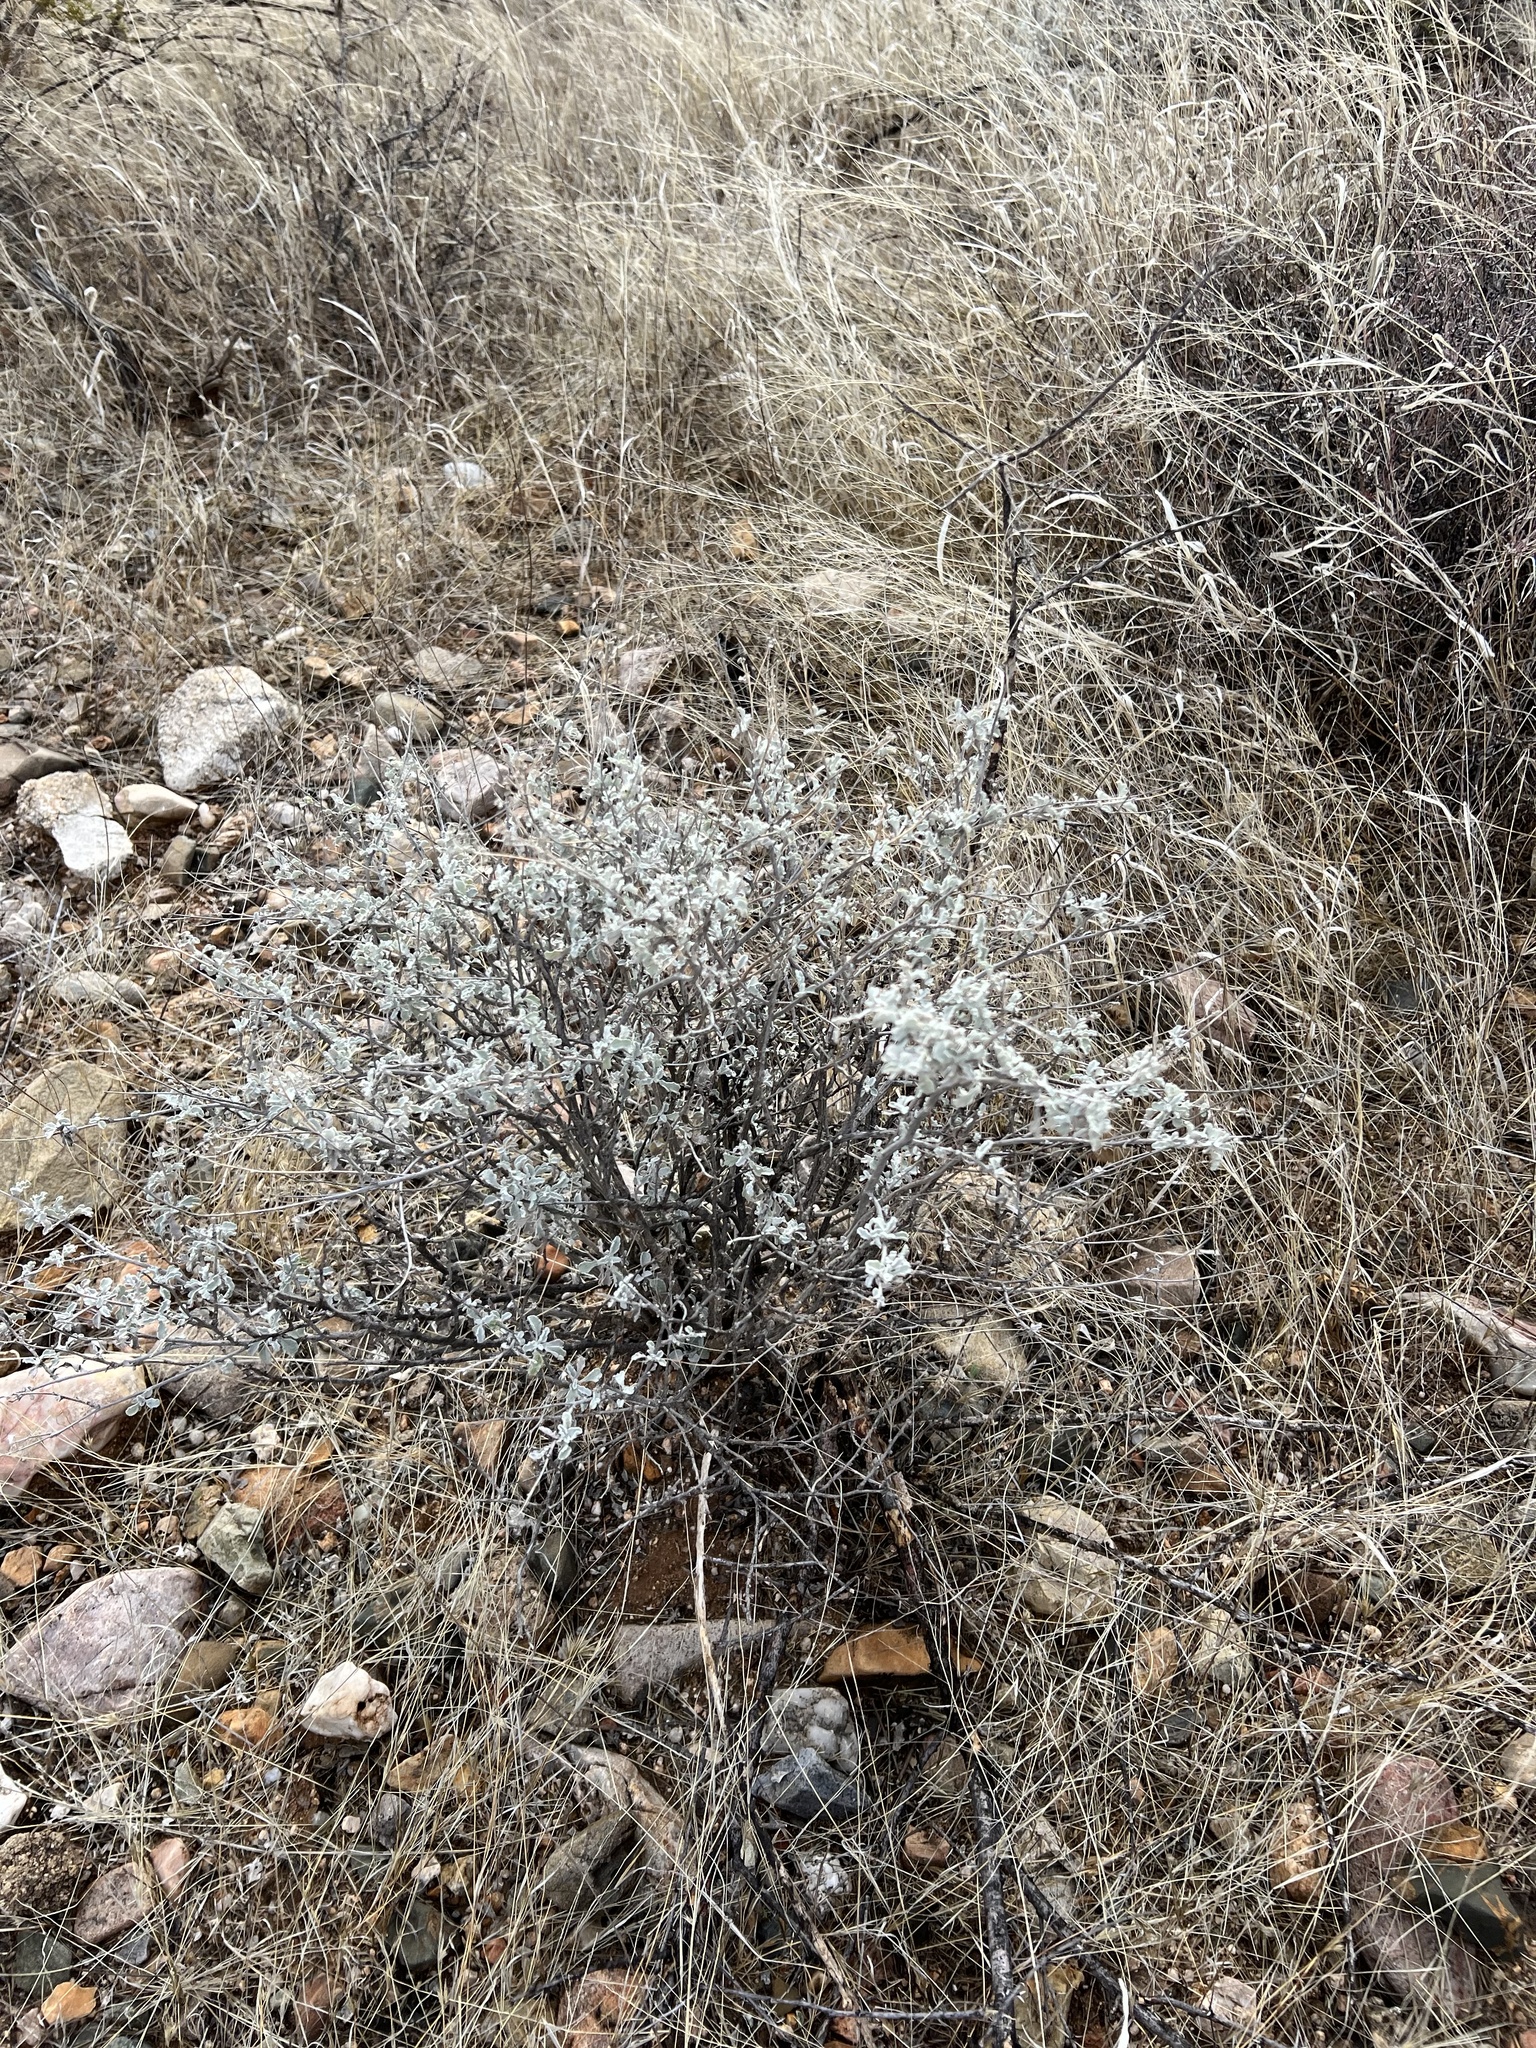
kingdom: Plantae
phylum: Tracheophyta
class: Magnoliopsida
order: Asterales
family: Asteraceae
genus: Parthenium
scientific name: Parthenium incanum
